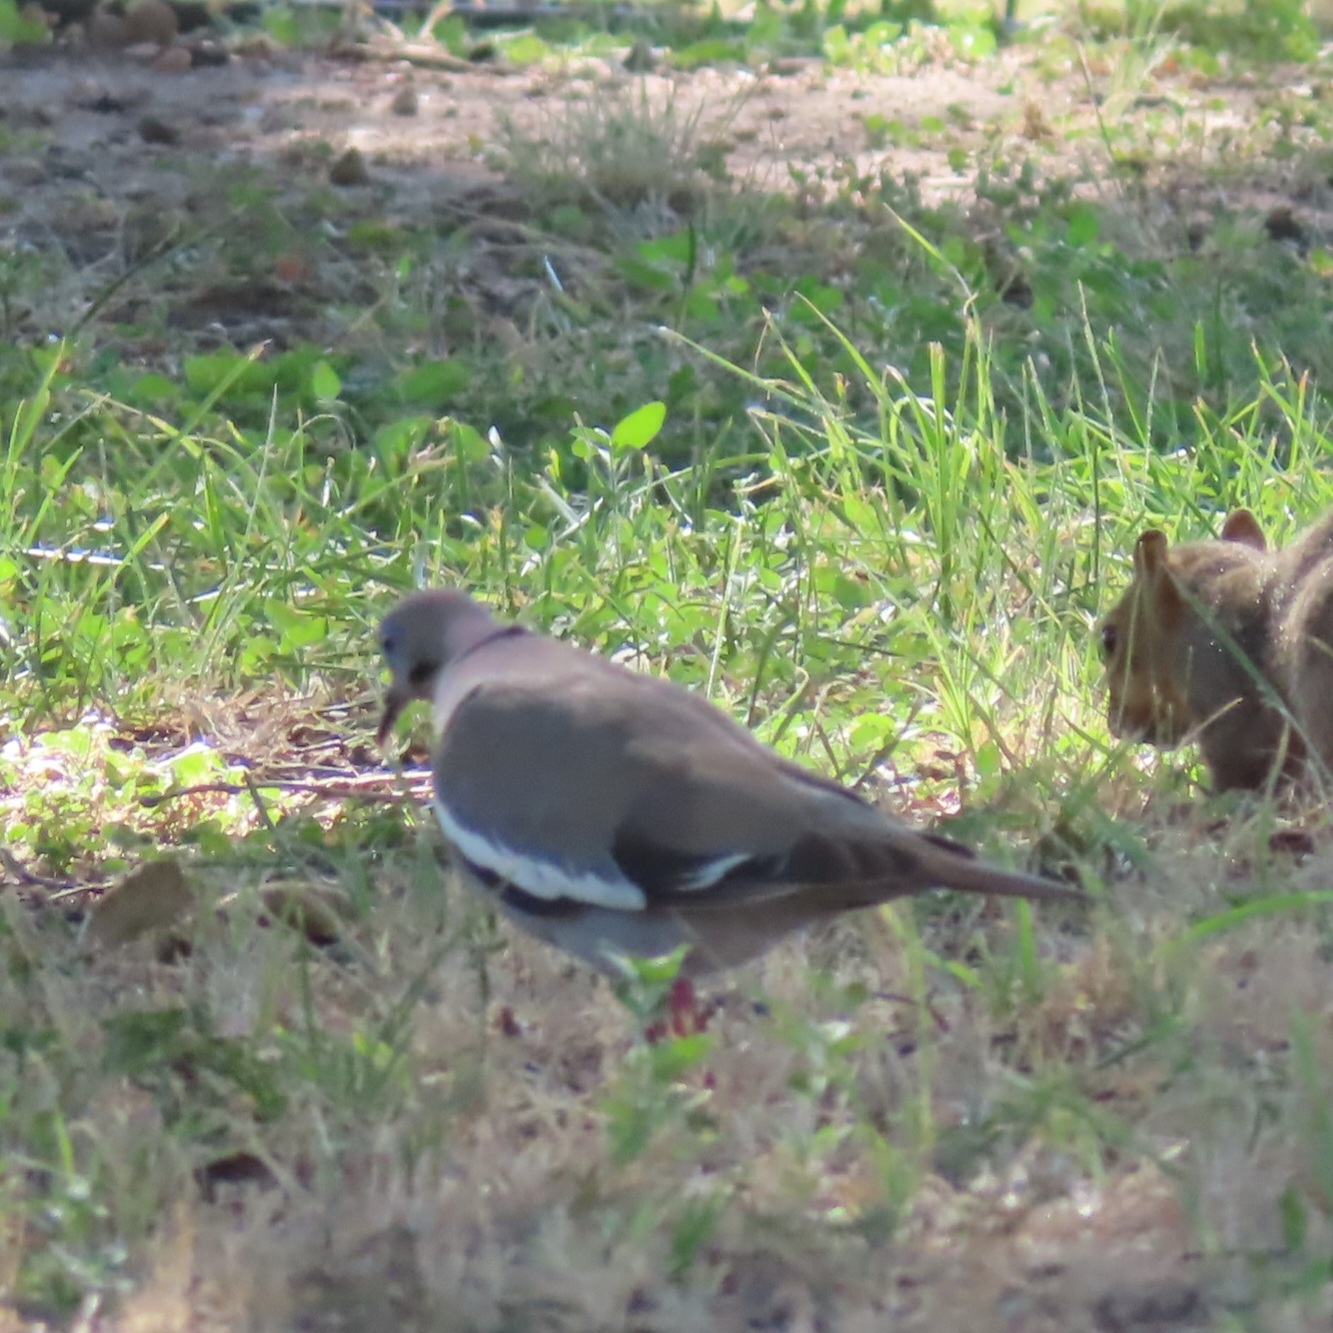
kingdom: Animalia
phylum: Chordata
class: Aves
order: Columbiformes
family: Columbidae
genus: Zenaida
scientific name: Zenaida asiatica
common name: White-winged dove
